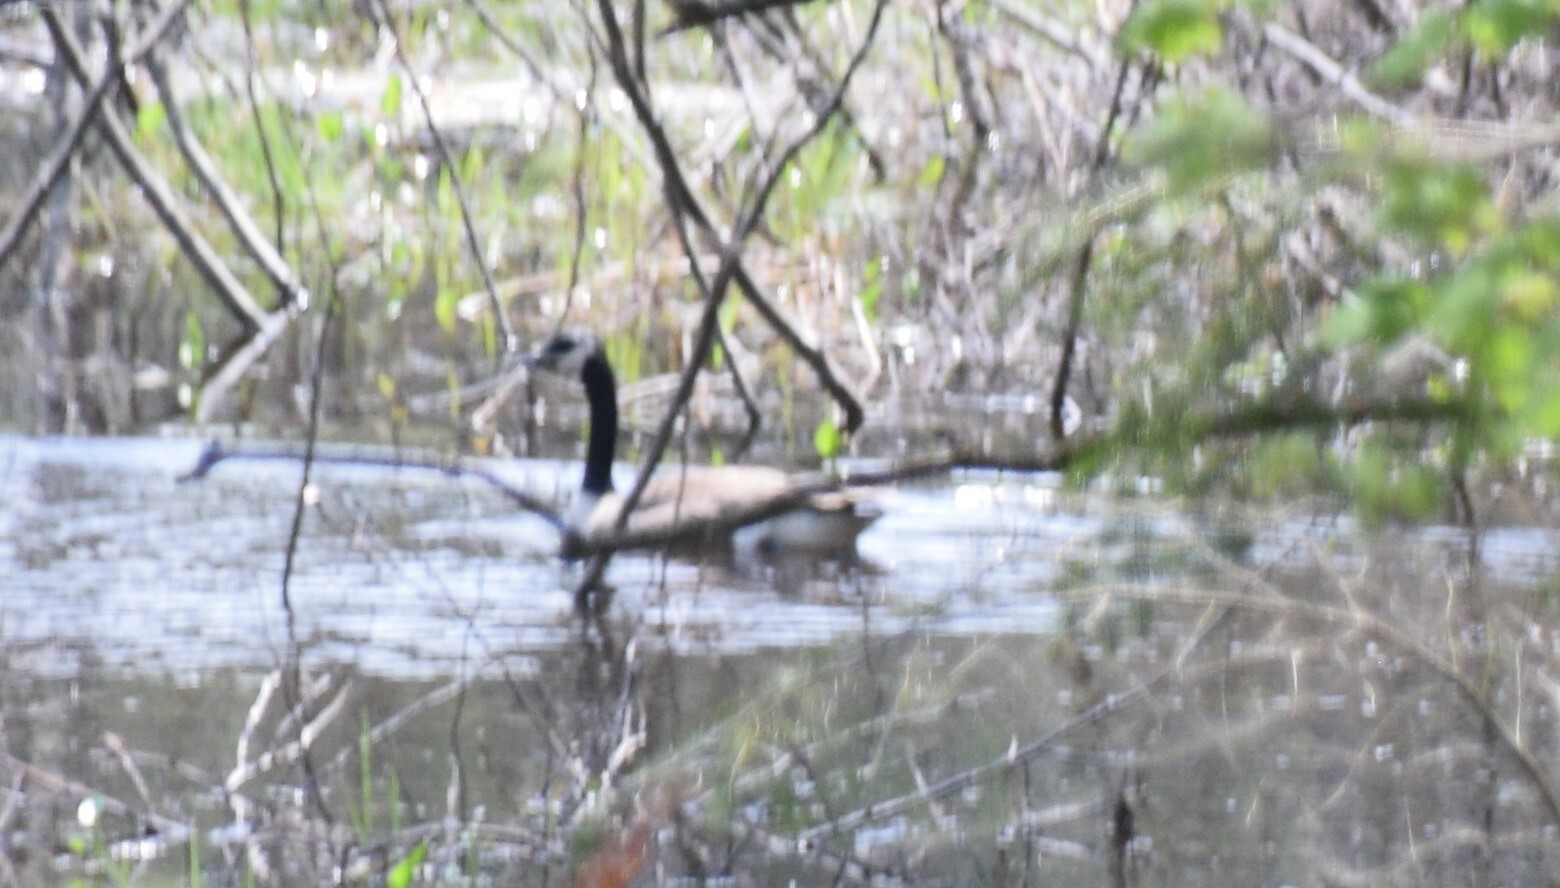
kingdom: Animalia
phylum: Chordata
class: Aves
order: Anseriformes
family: Anatidae
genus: Branta
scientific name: Branta canadensis
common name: Canada goose
